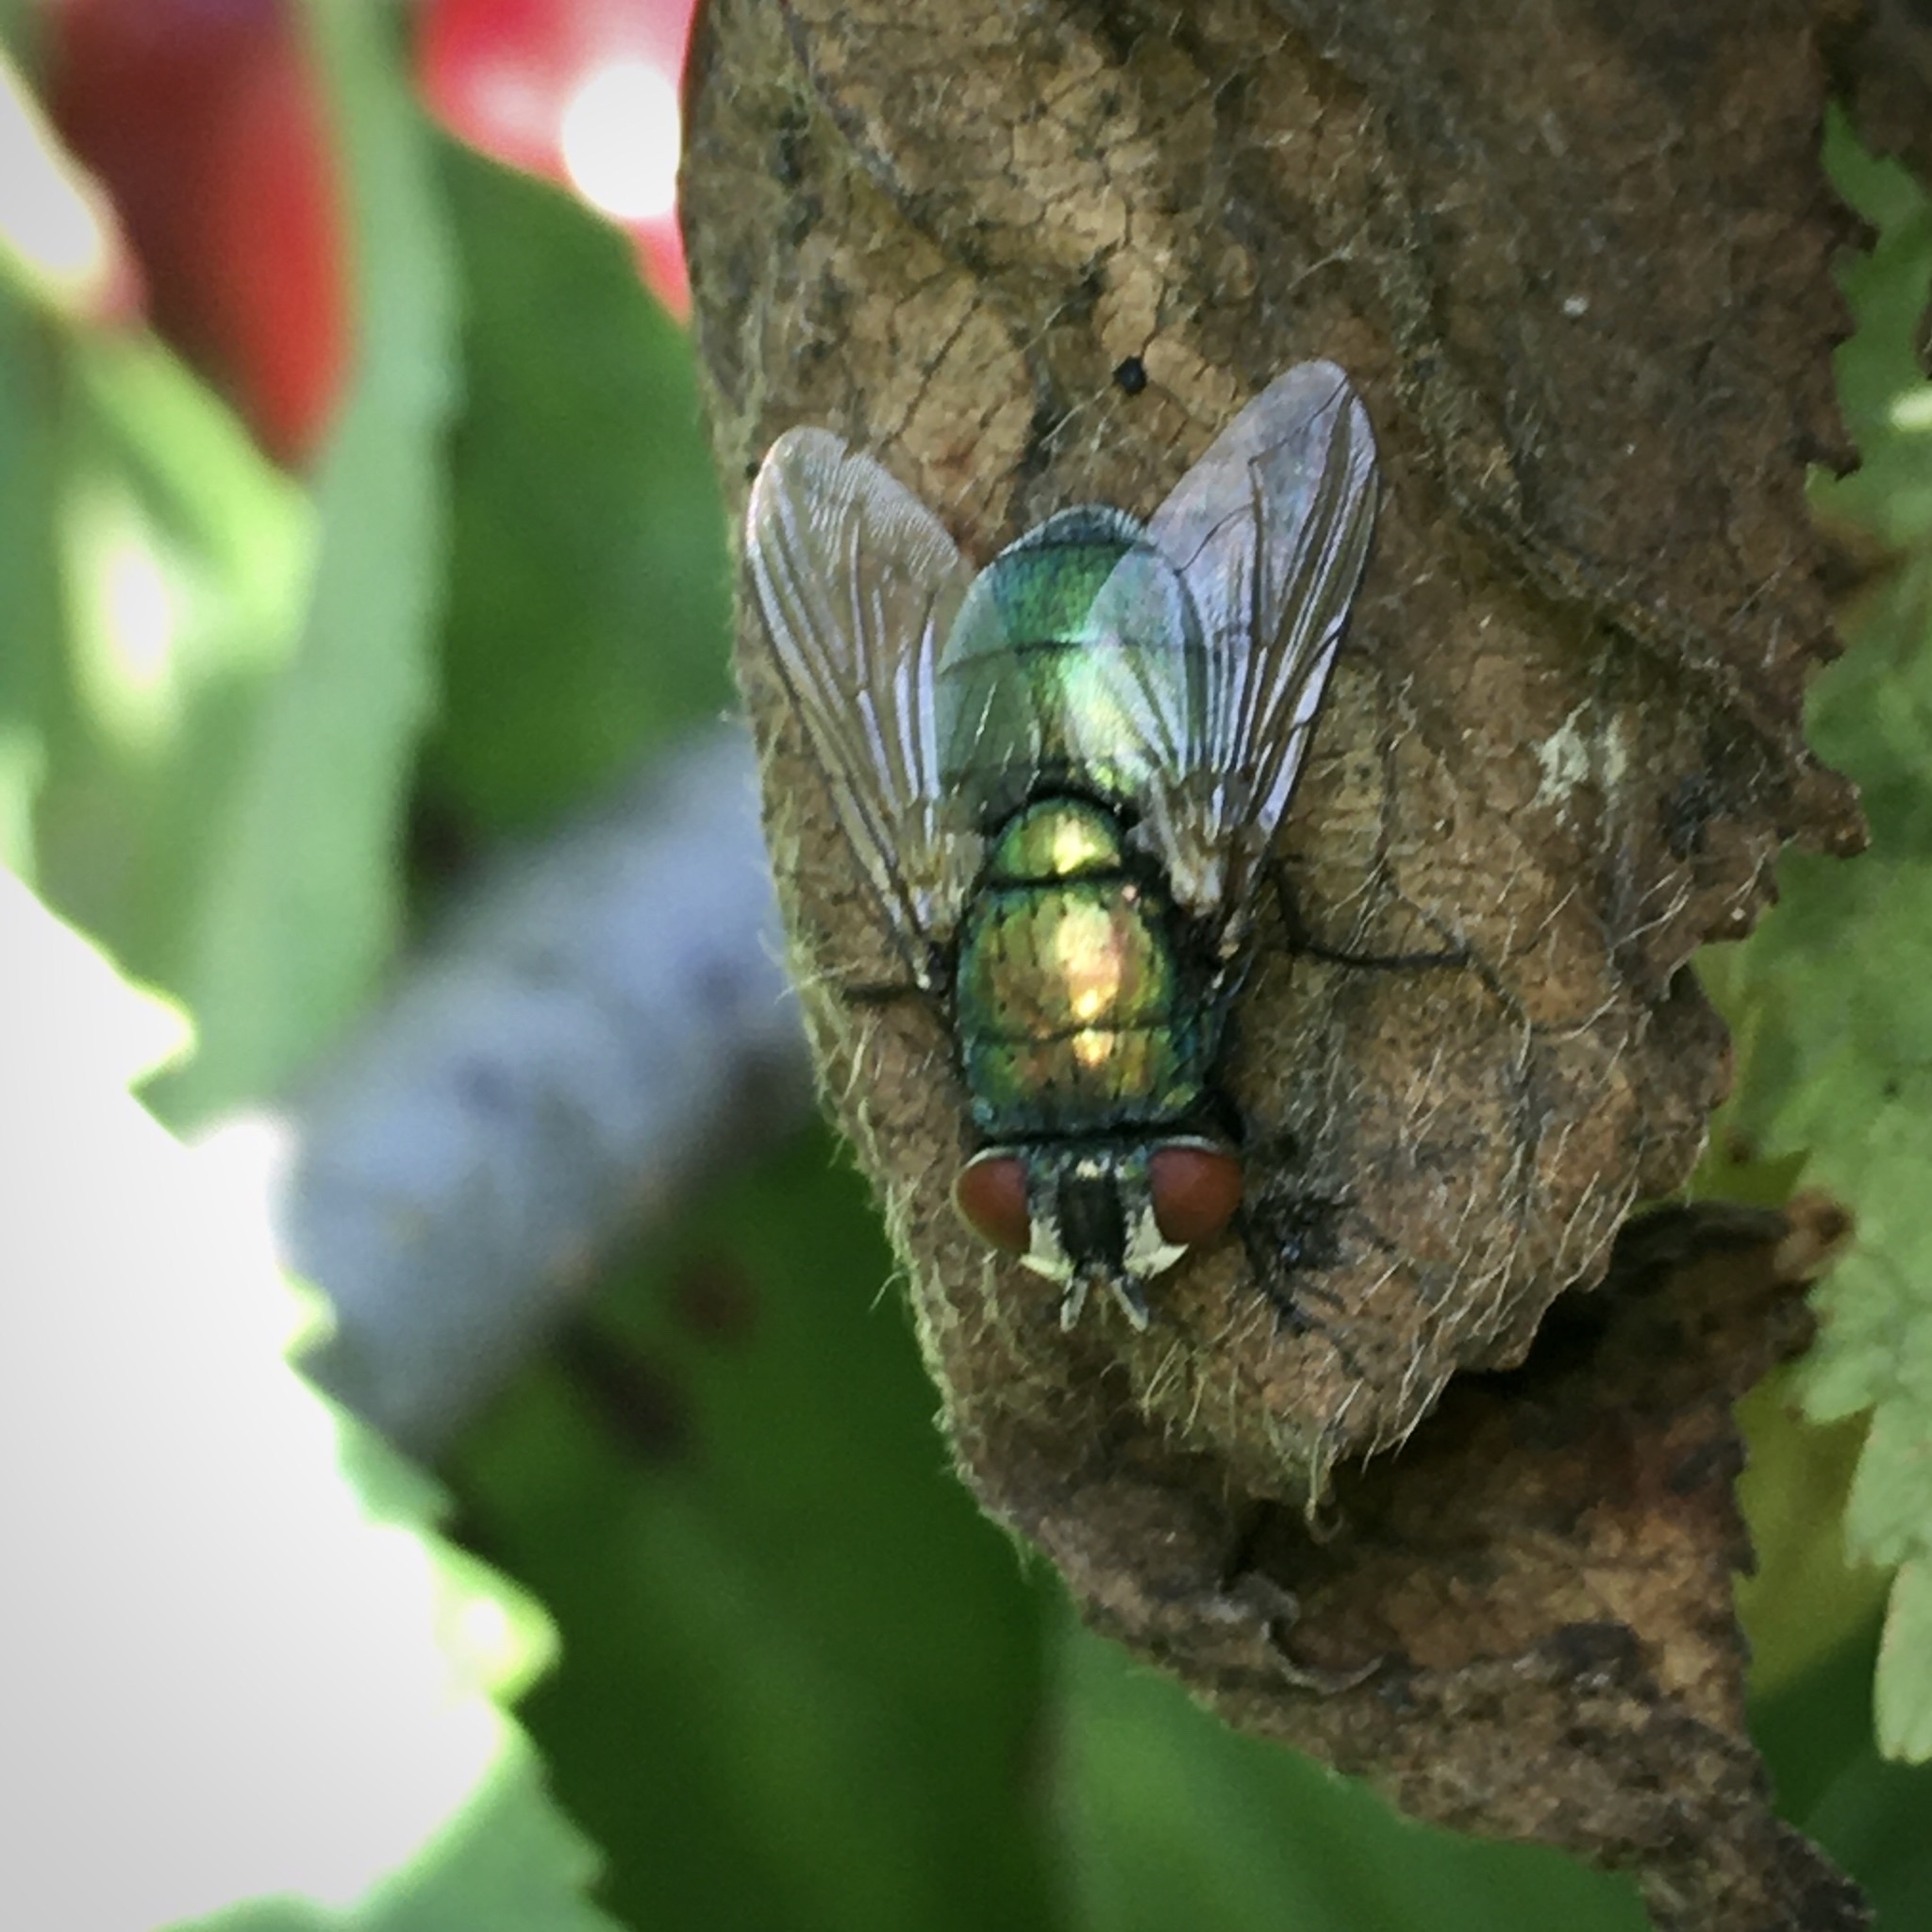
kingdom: Animalia
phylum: Arthropoda
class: Insecta
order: Diptera
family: Calliphoridae
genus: Lucilia
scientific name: Lucilia sericata
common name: Blow fly
